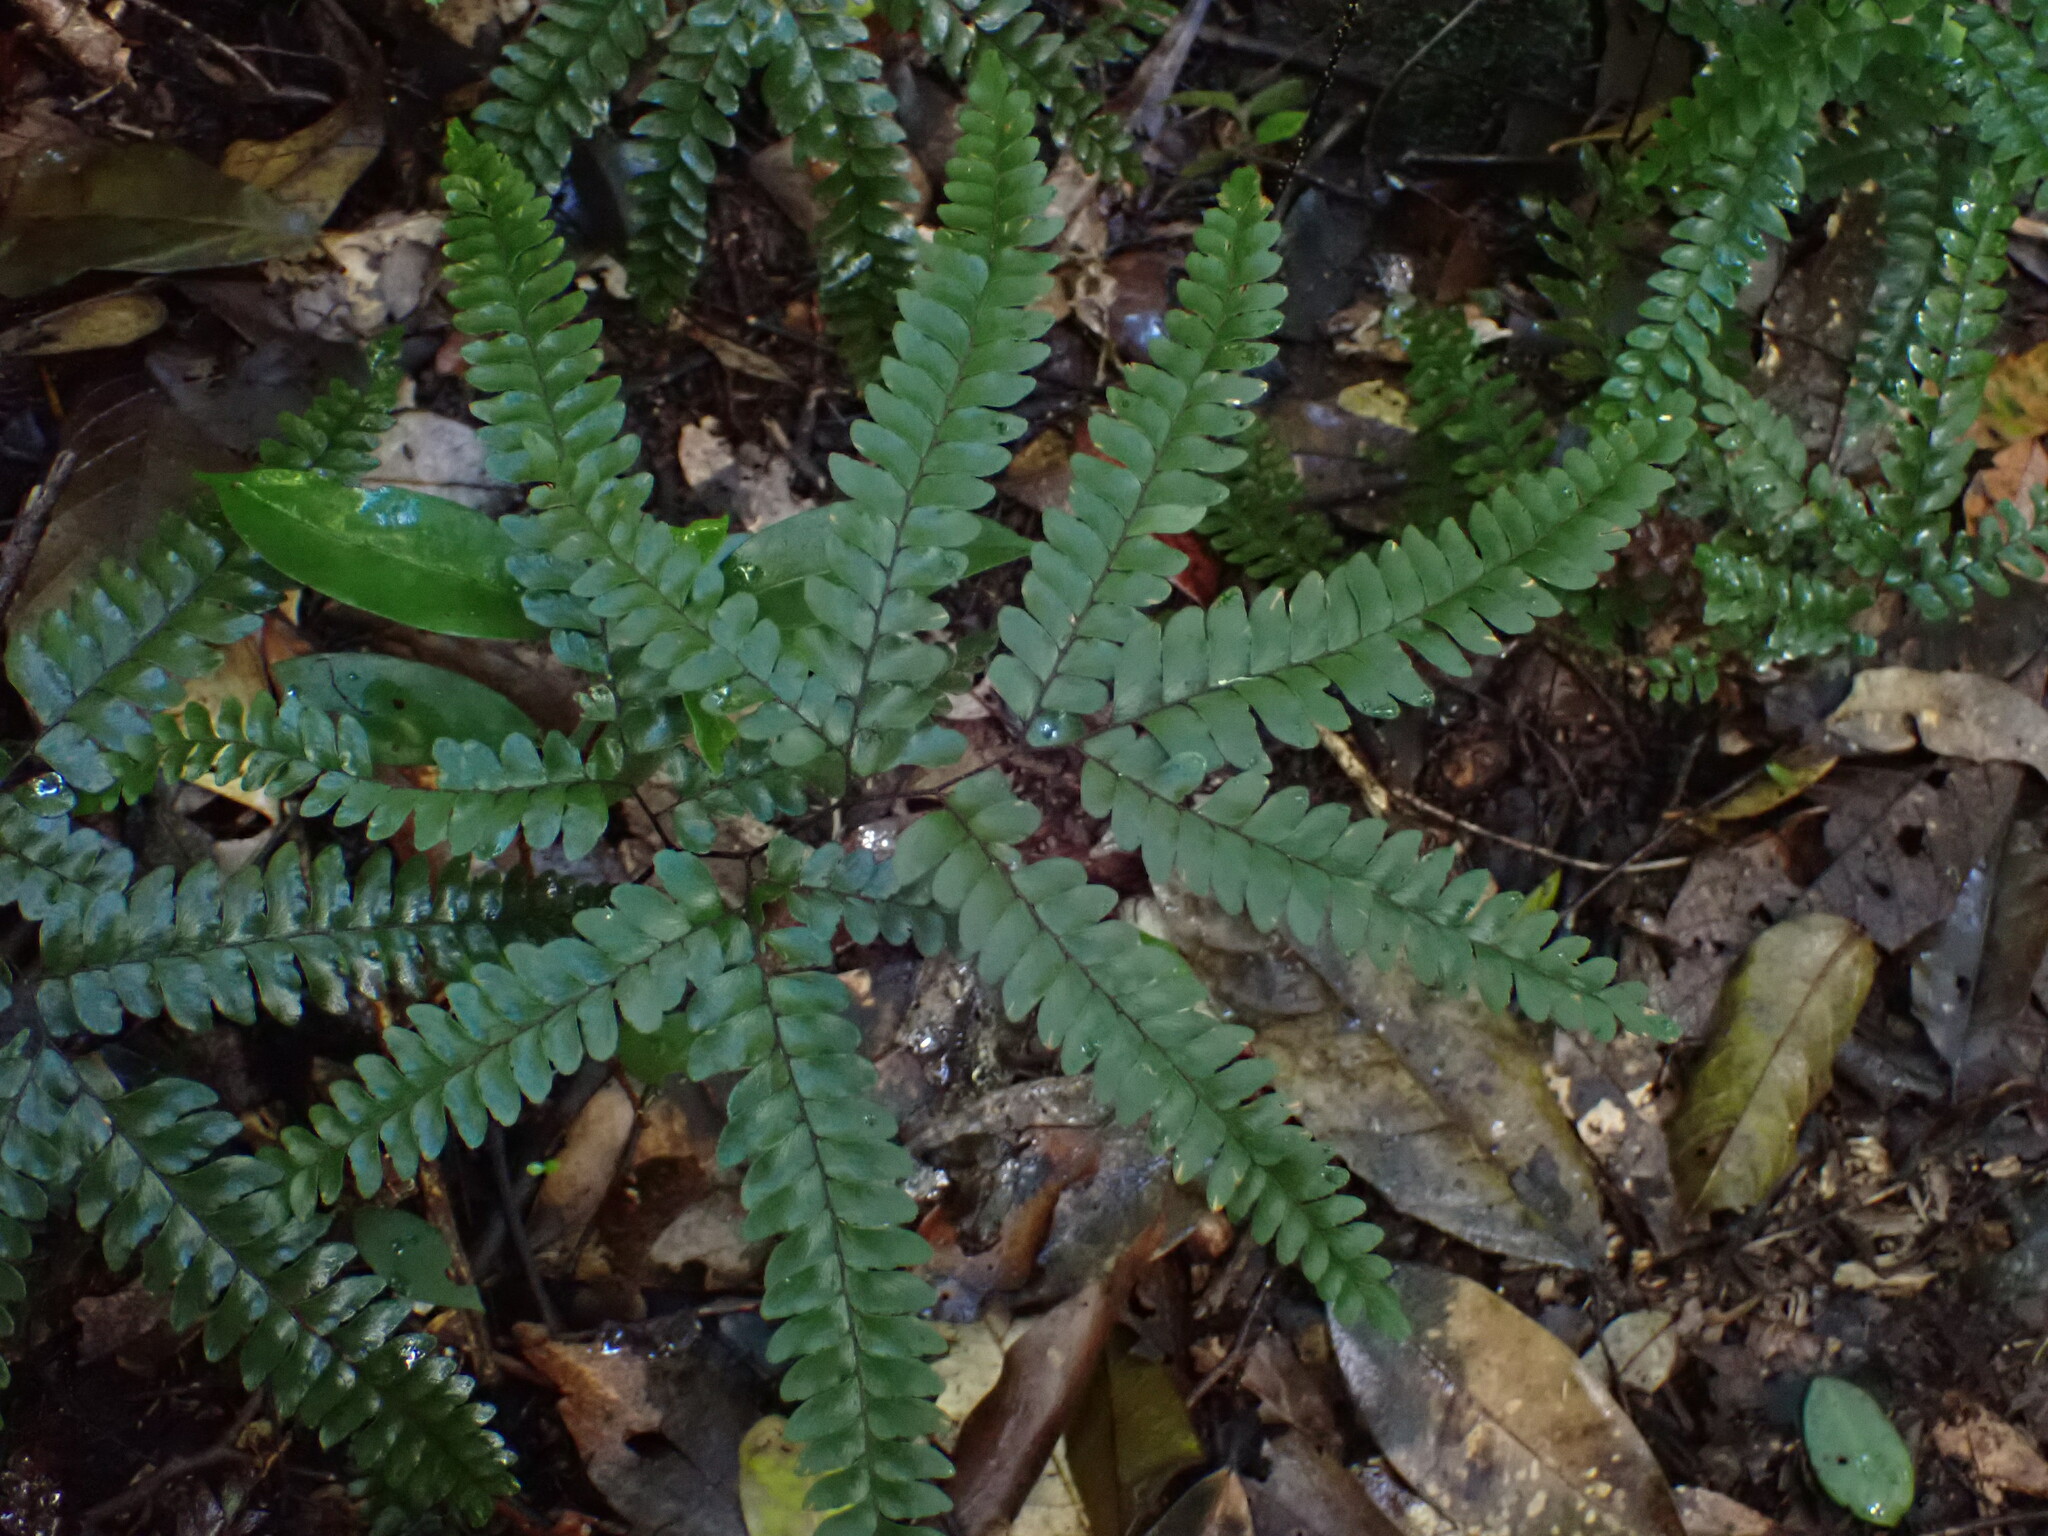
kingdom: Plantae
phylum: Tracheophyta
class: Polypodiopsida
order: Polypodiales
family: Pteridaceae
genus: Adiantum
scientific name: Adiantum silvaticum
